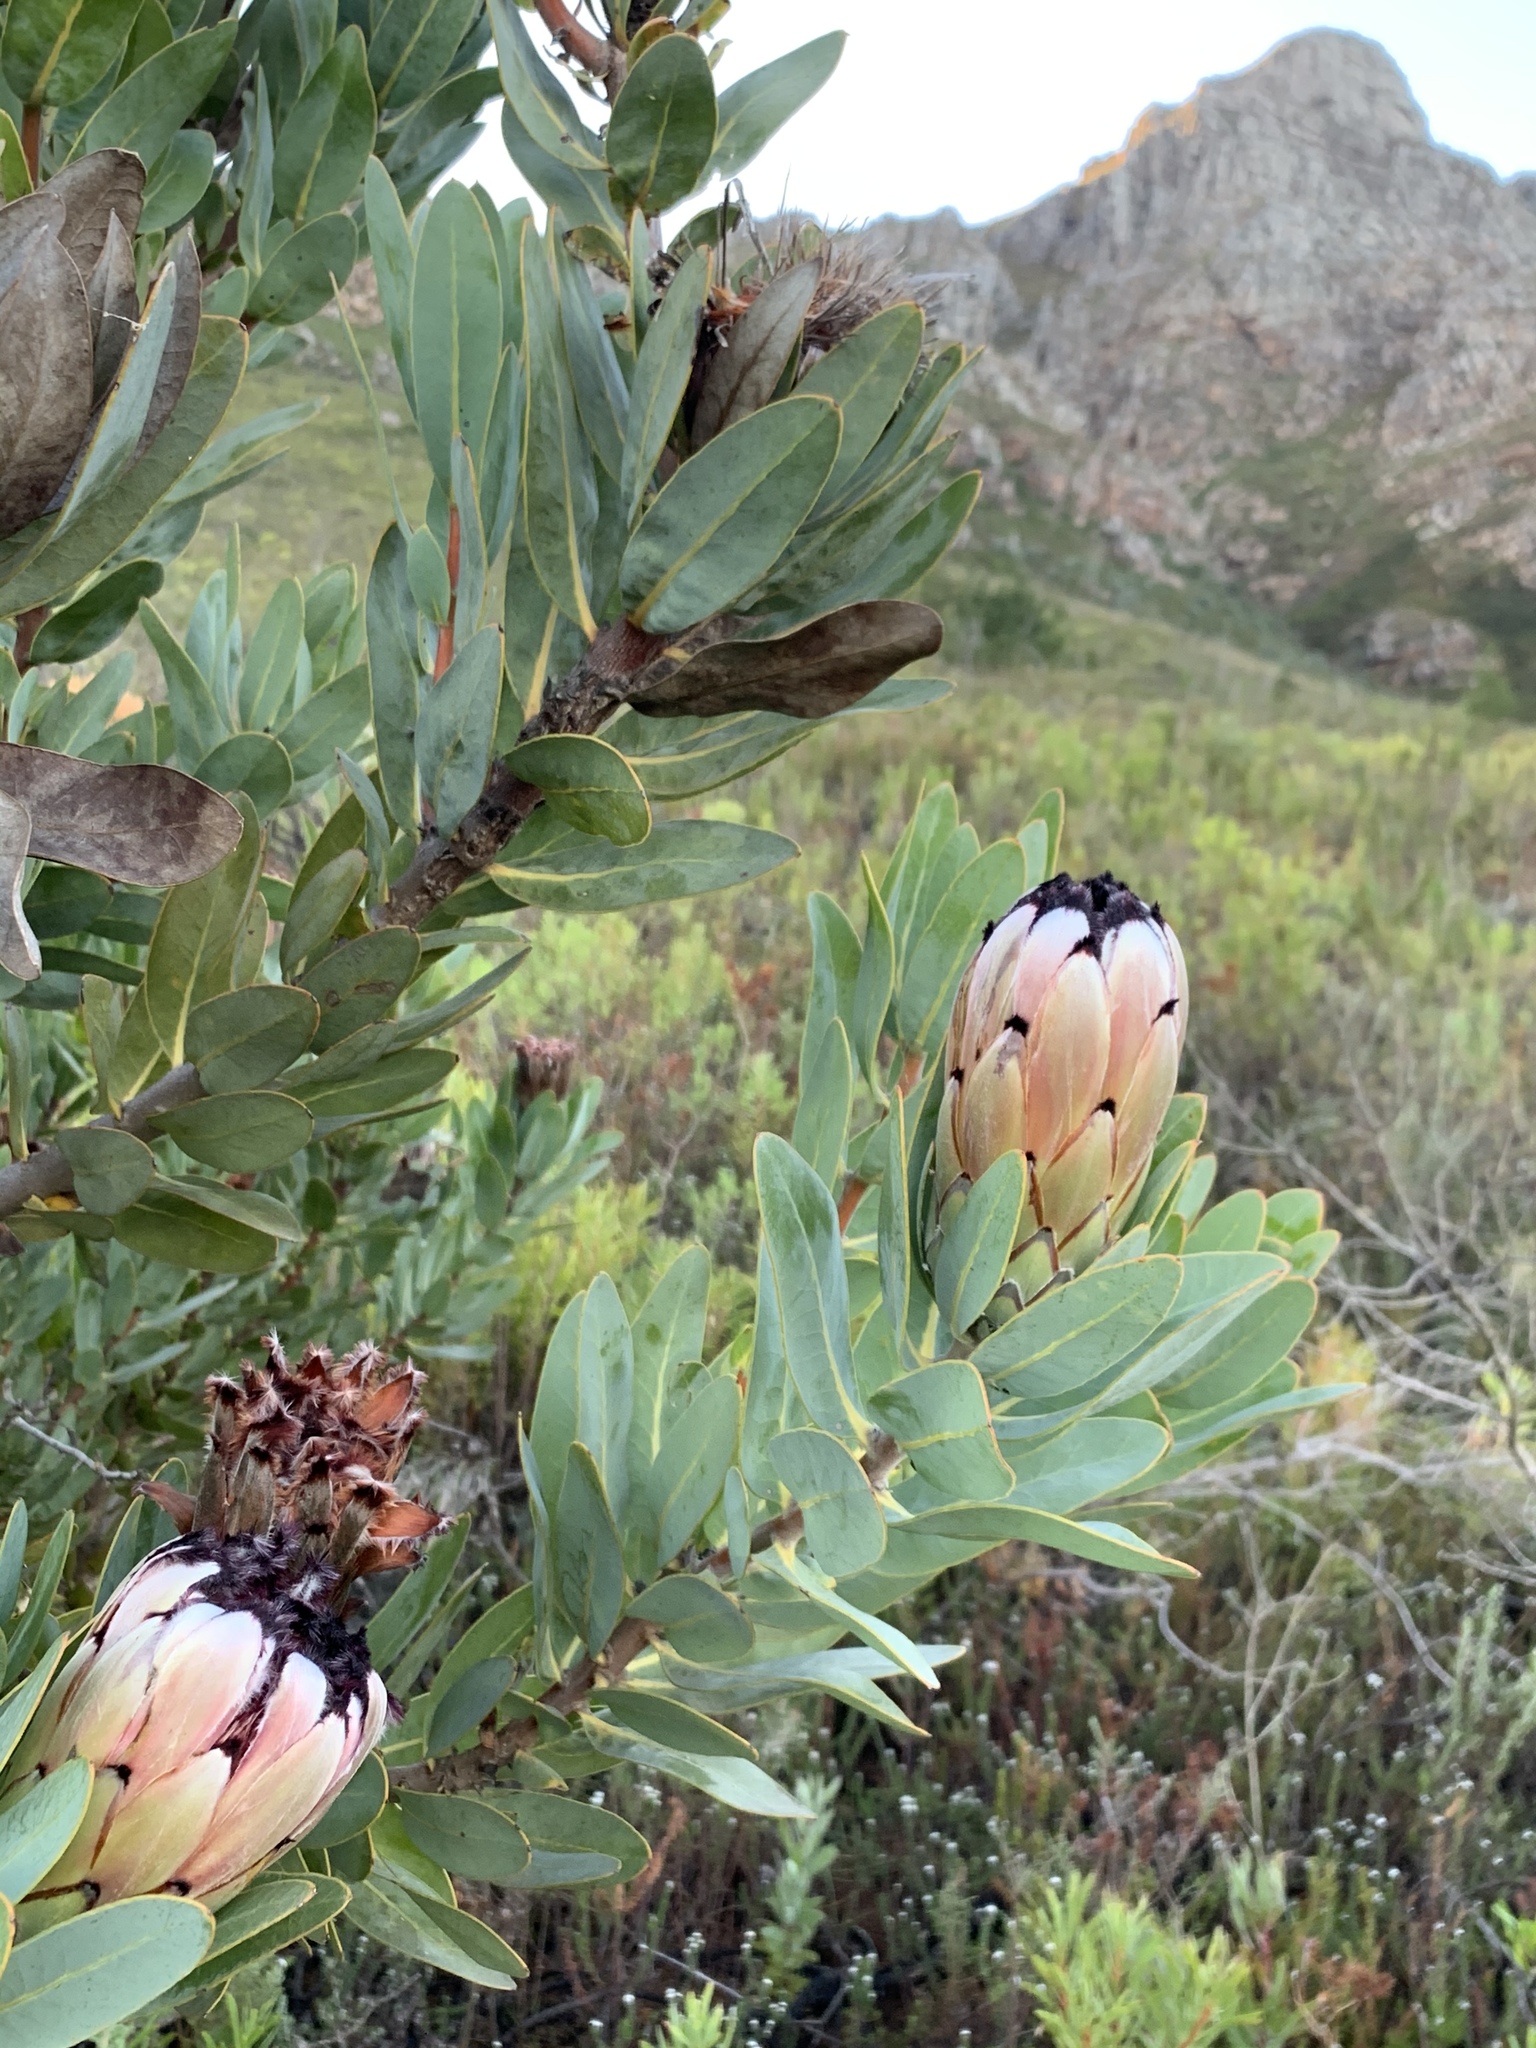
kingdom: Plantae
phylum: Tracheophyta
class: Magnoliopsida
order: Proteales
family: Proteaceae
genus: Protea
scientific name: Protea laurifolia
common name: Grey-leaf sugarbsh
